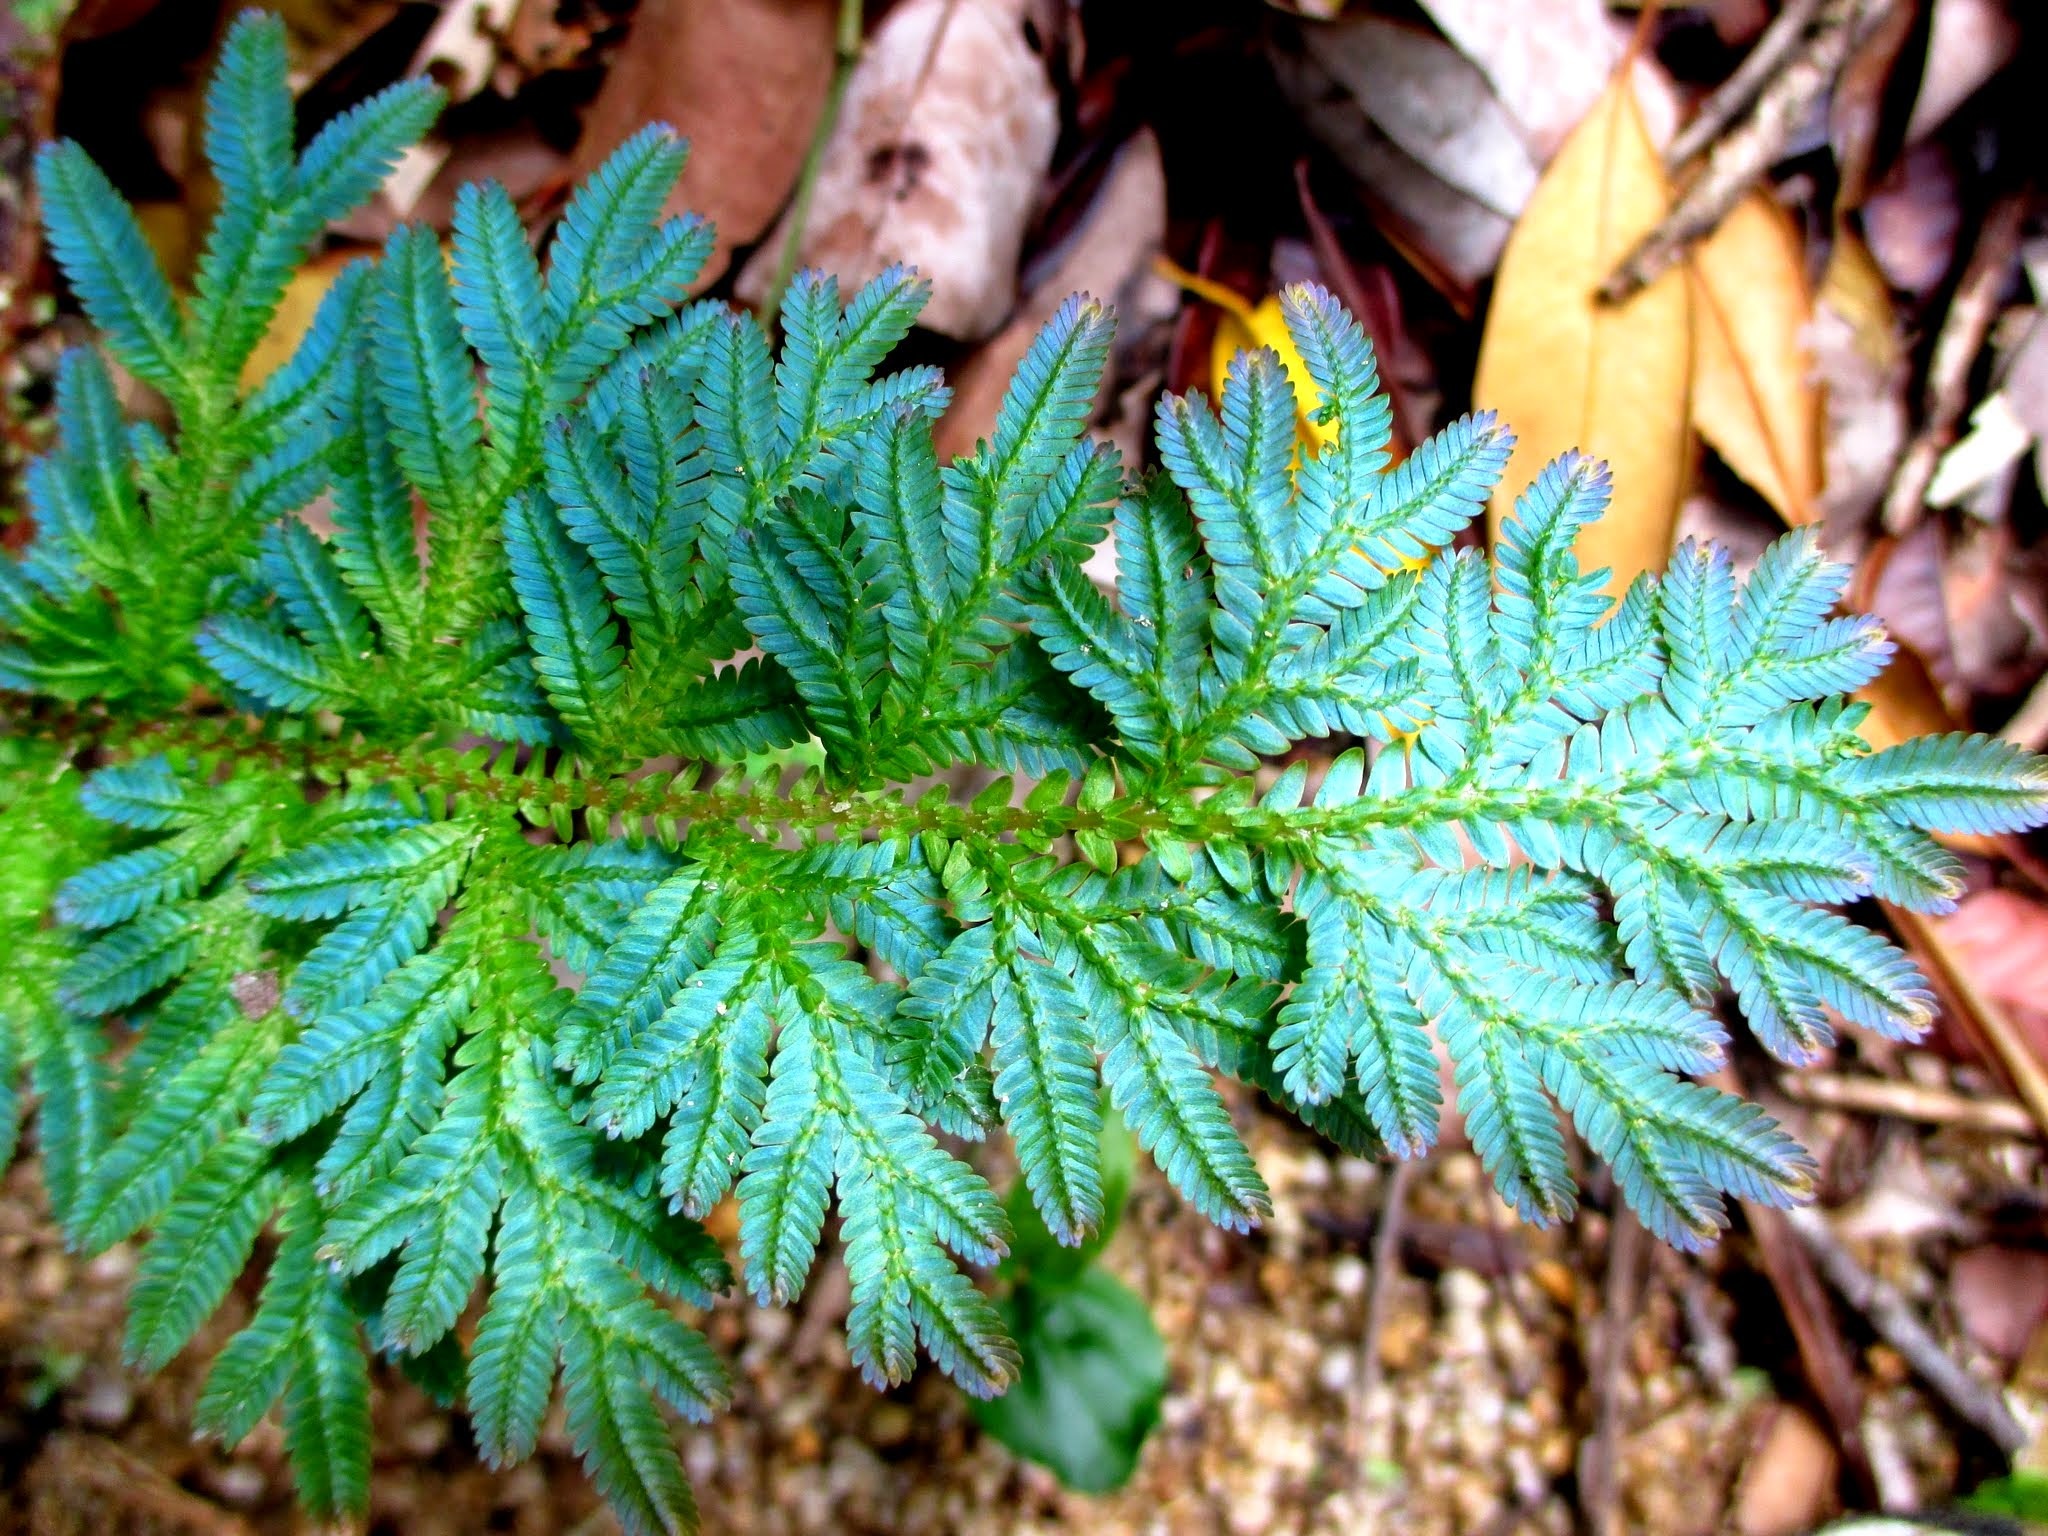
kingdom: Plantae
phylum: Tracheophyta
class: Lycopodiopsida
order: Selaginellales
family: Selaginellaceae
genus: Selaginella
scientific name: Selaginella willdenowii
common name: Willdenow's spikemoss
